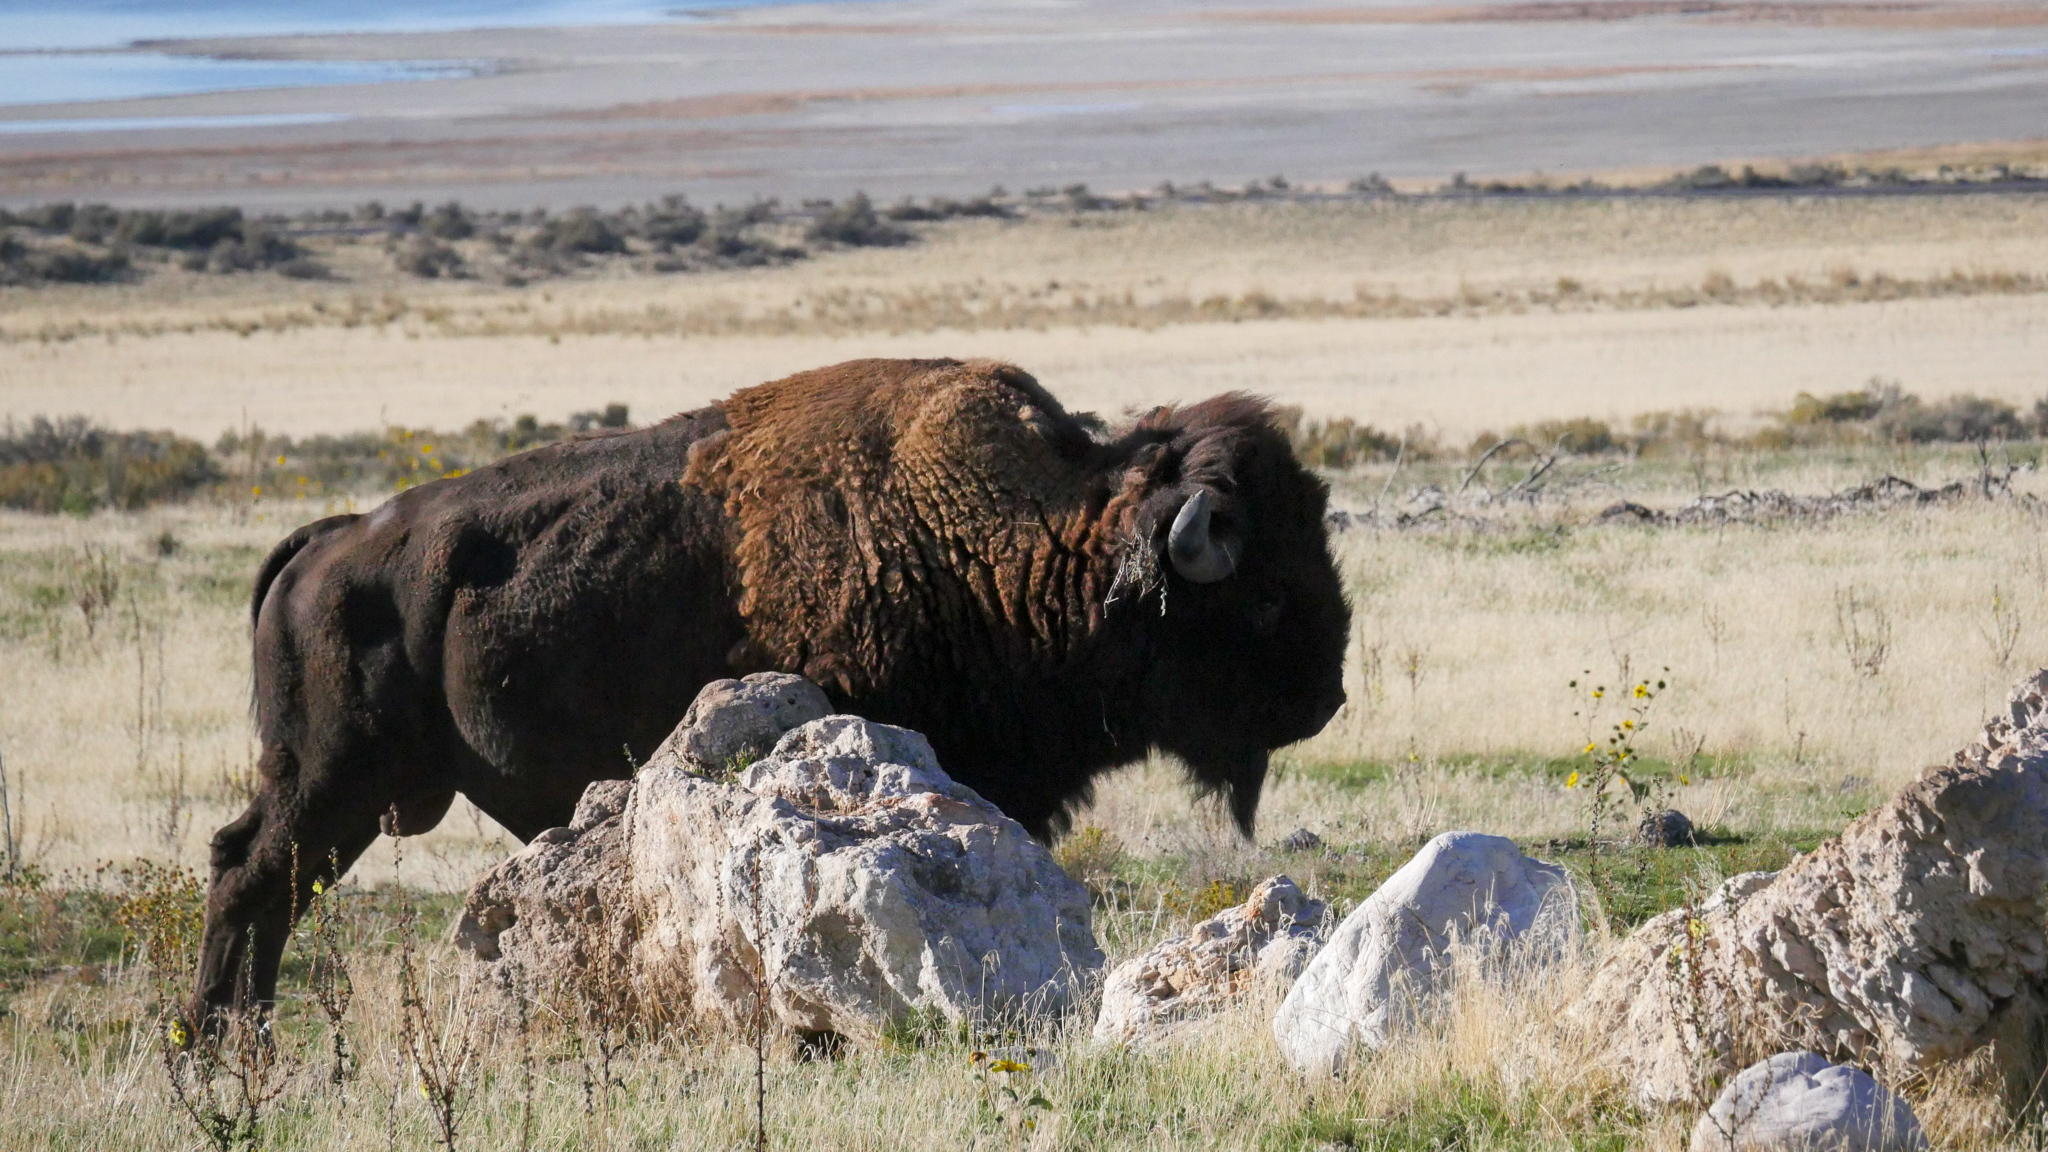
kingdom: Animalia
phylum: Chordata
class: Mammalia
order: Artiodactyla
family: Bovidae
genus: Bison
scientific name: Bison bison
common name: American bison
